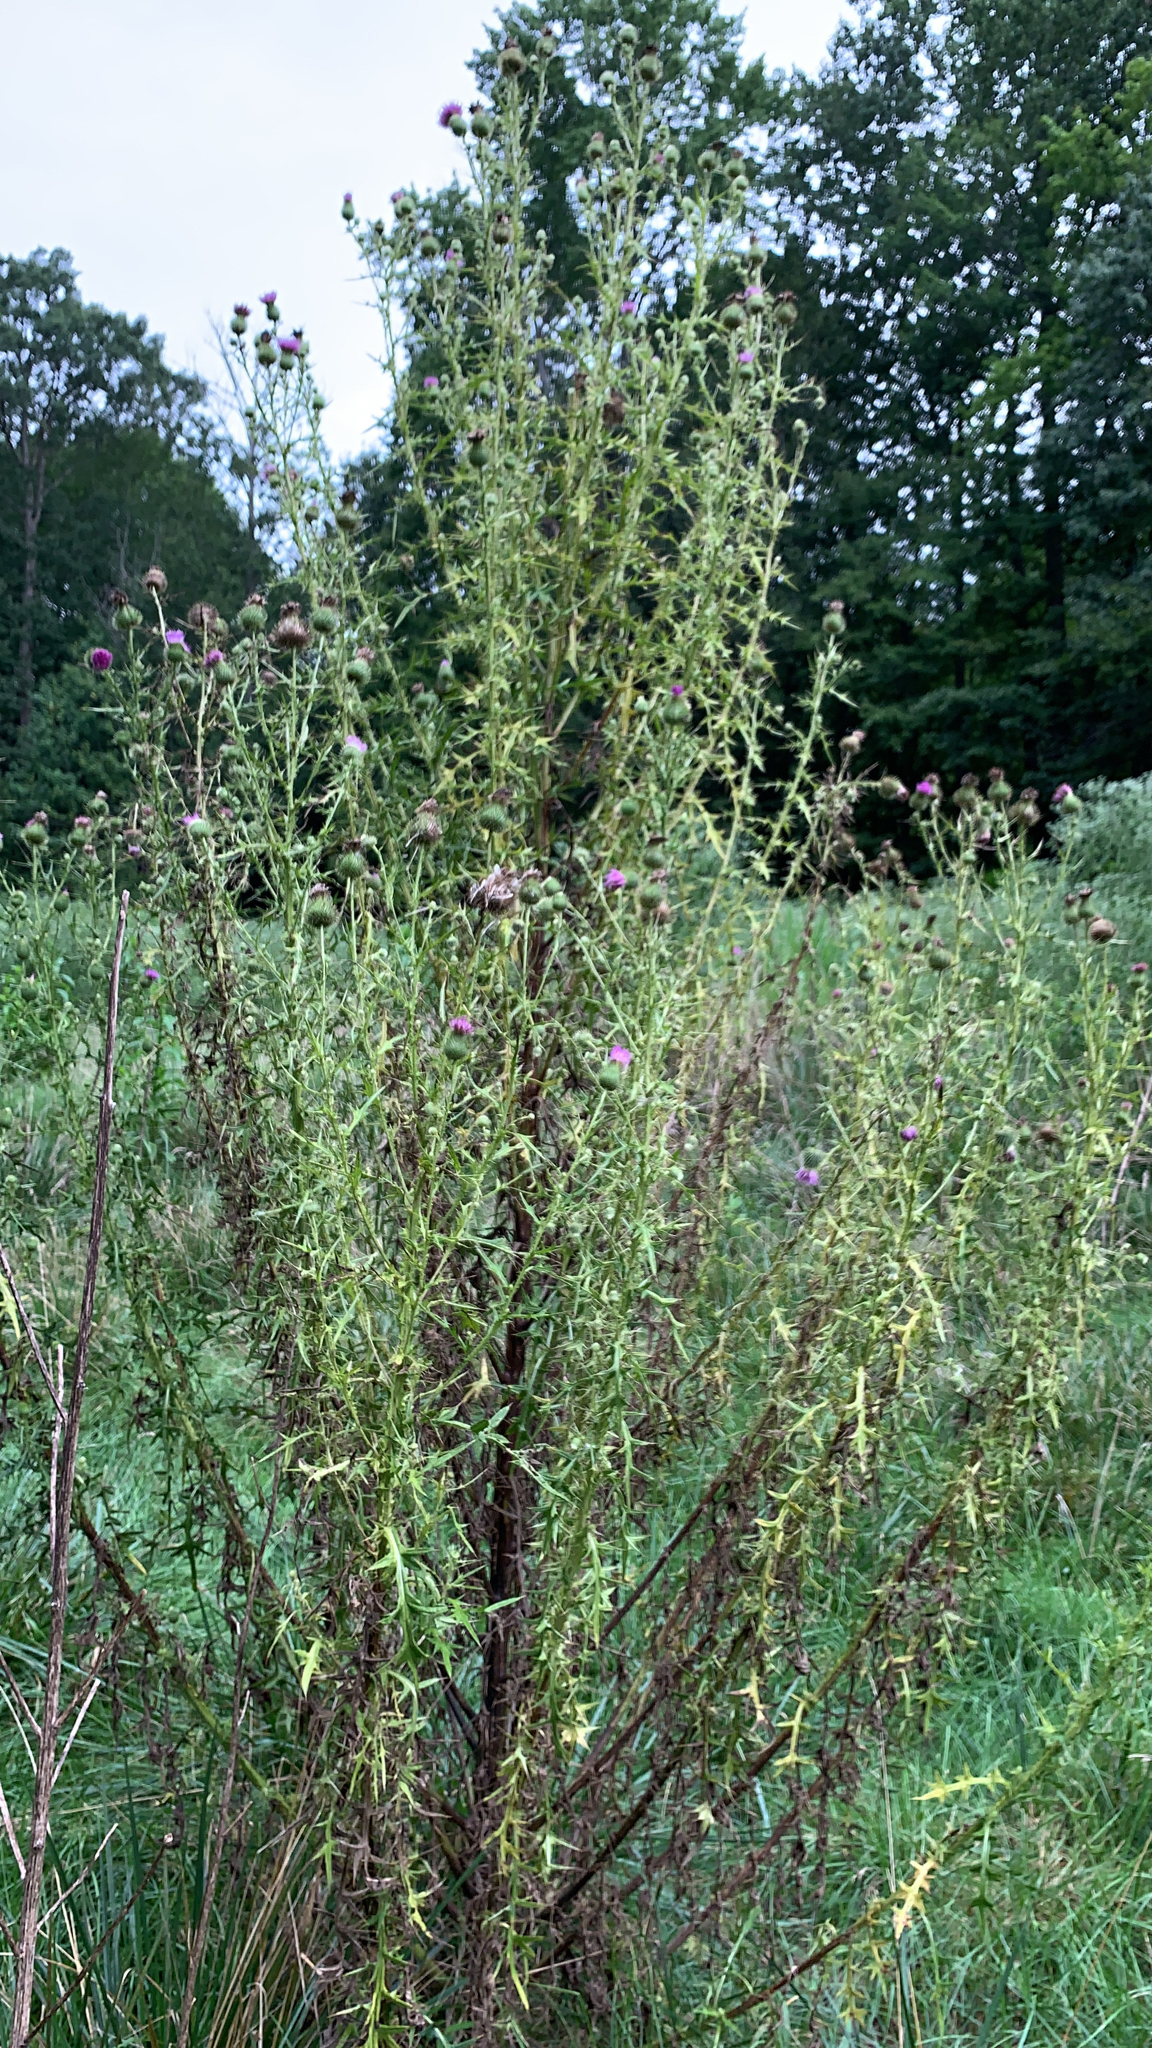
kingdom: Plantae
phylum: Tracheophyta
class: Magnoliopsida
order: Asterales
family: Asteraceae
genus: Cirsium
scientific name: Cirsium vulgare
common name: Bull thistle
